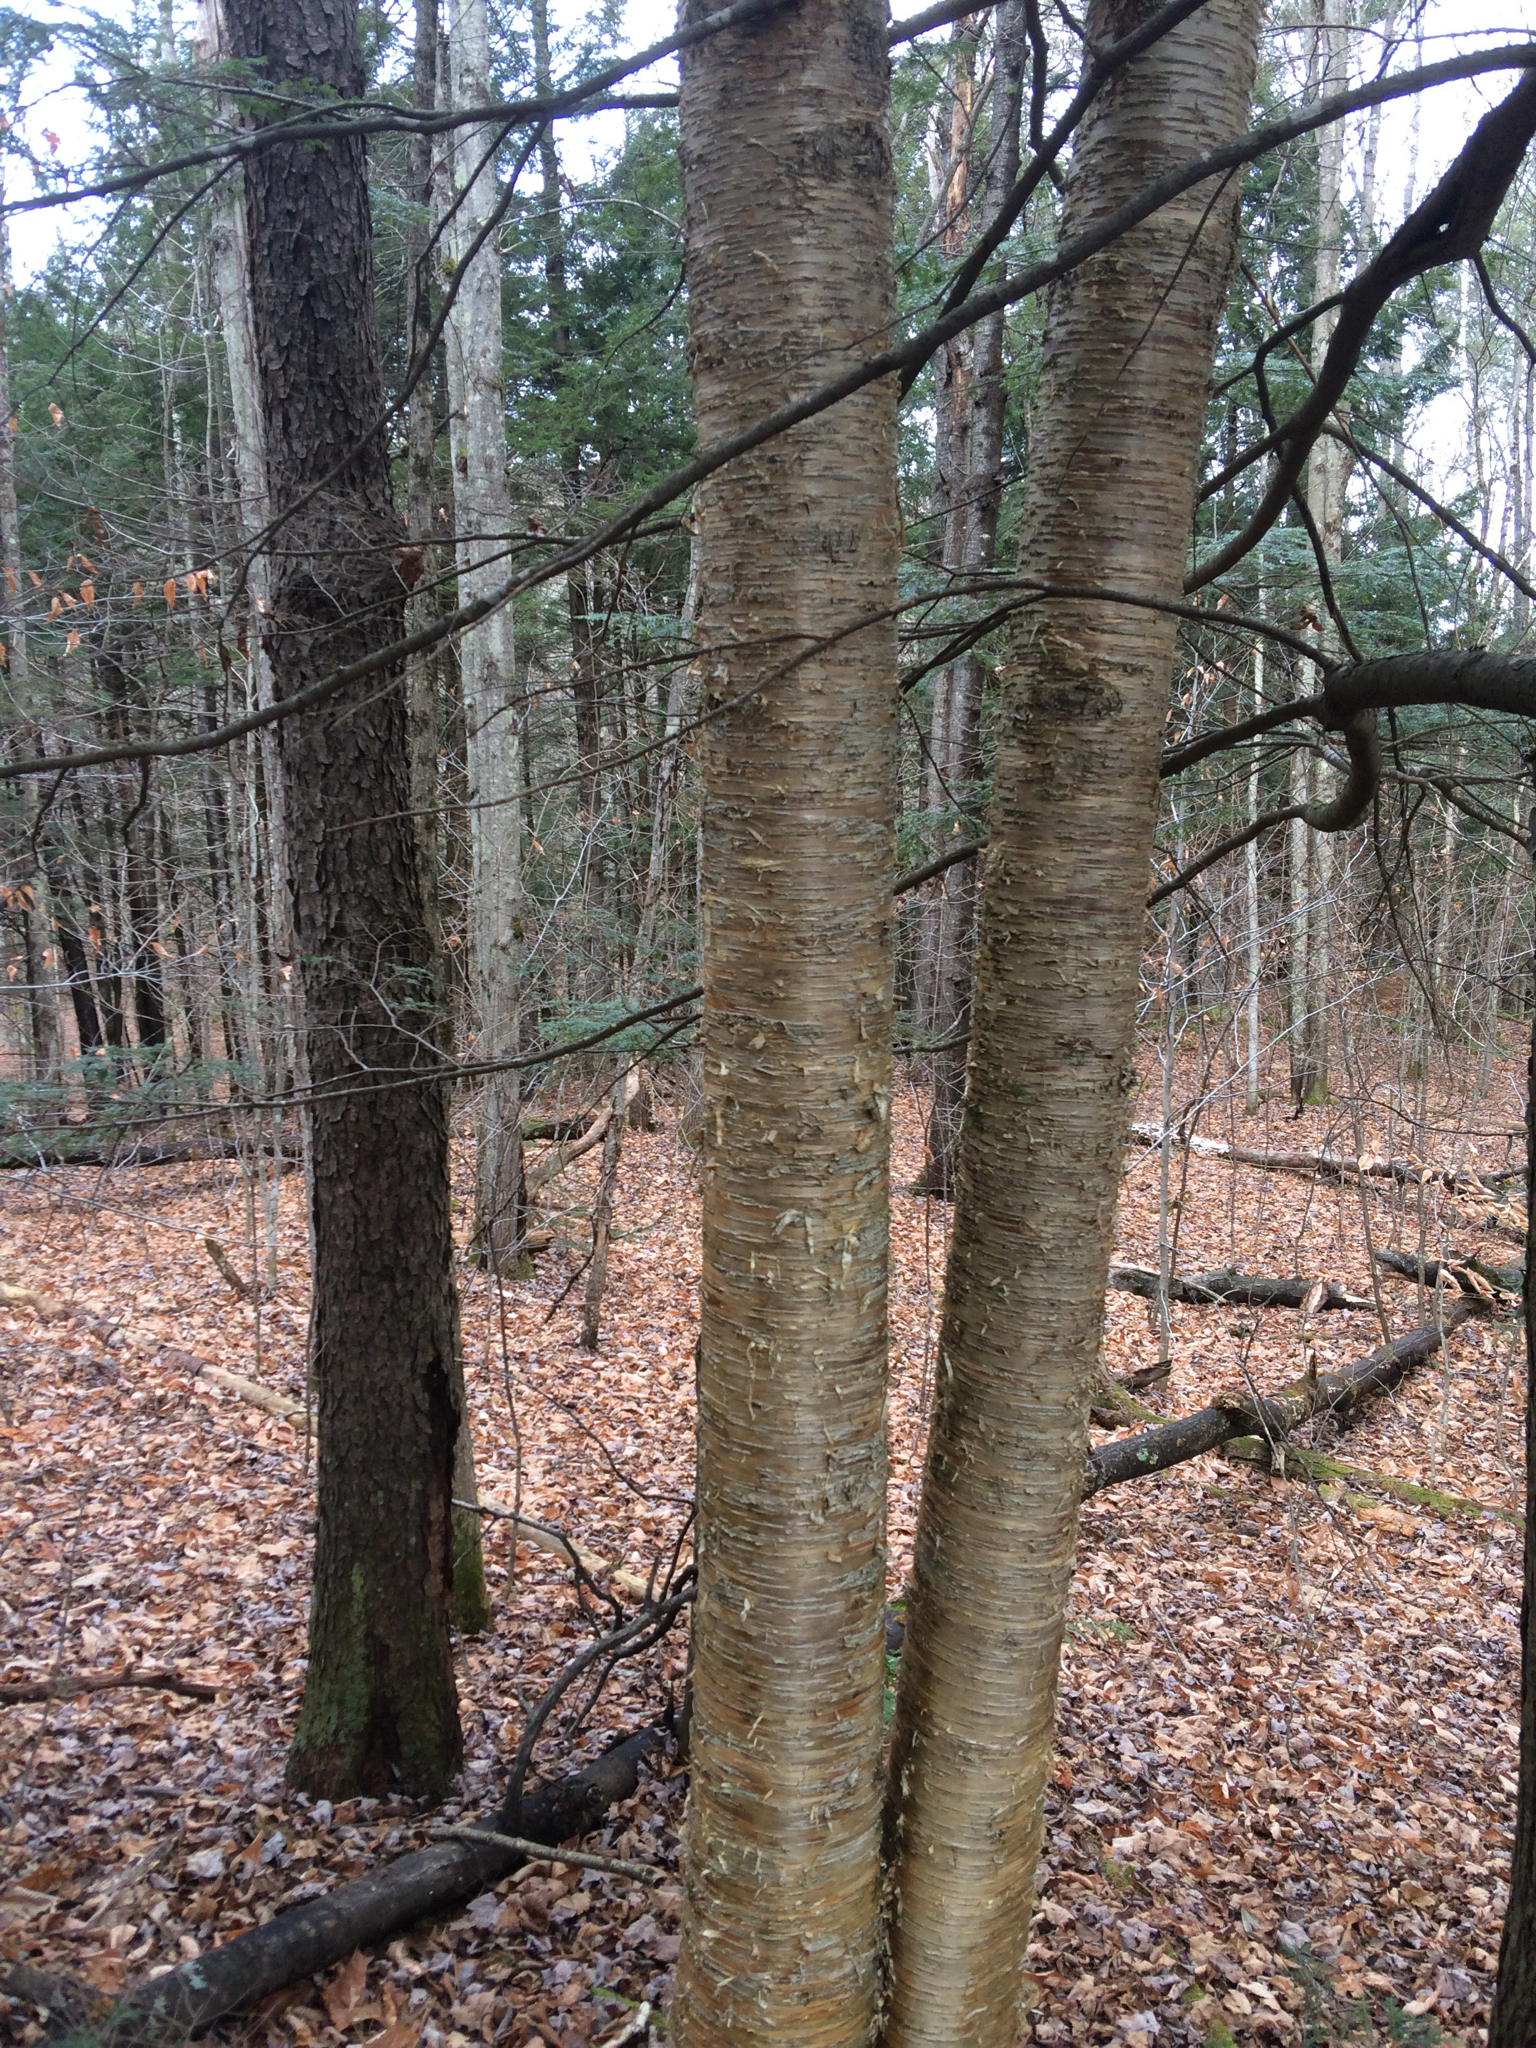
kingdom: Plantae
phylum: Tracheophyta
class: Magnoliopsida
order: Fagales
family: Betulaceae
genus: Betula
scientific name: Betula alleghaniensis
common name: Yellow birch
